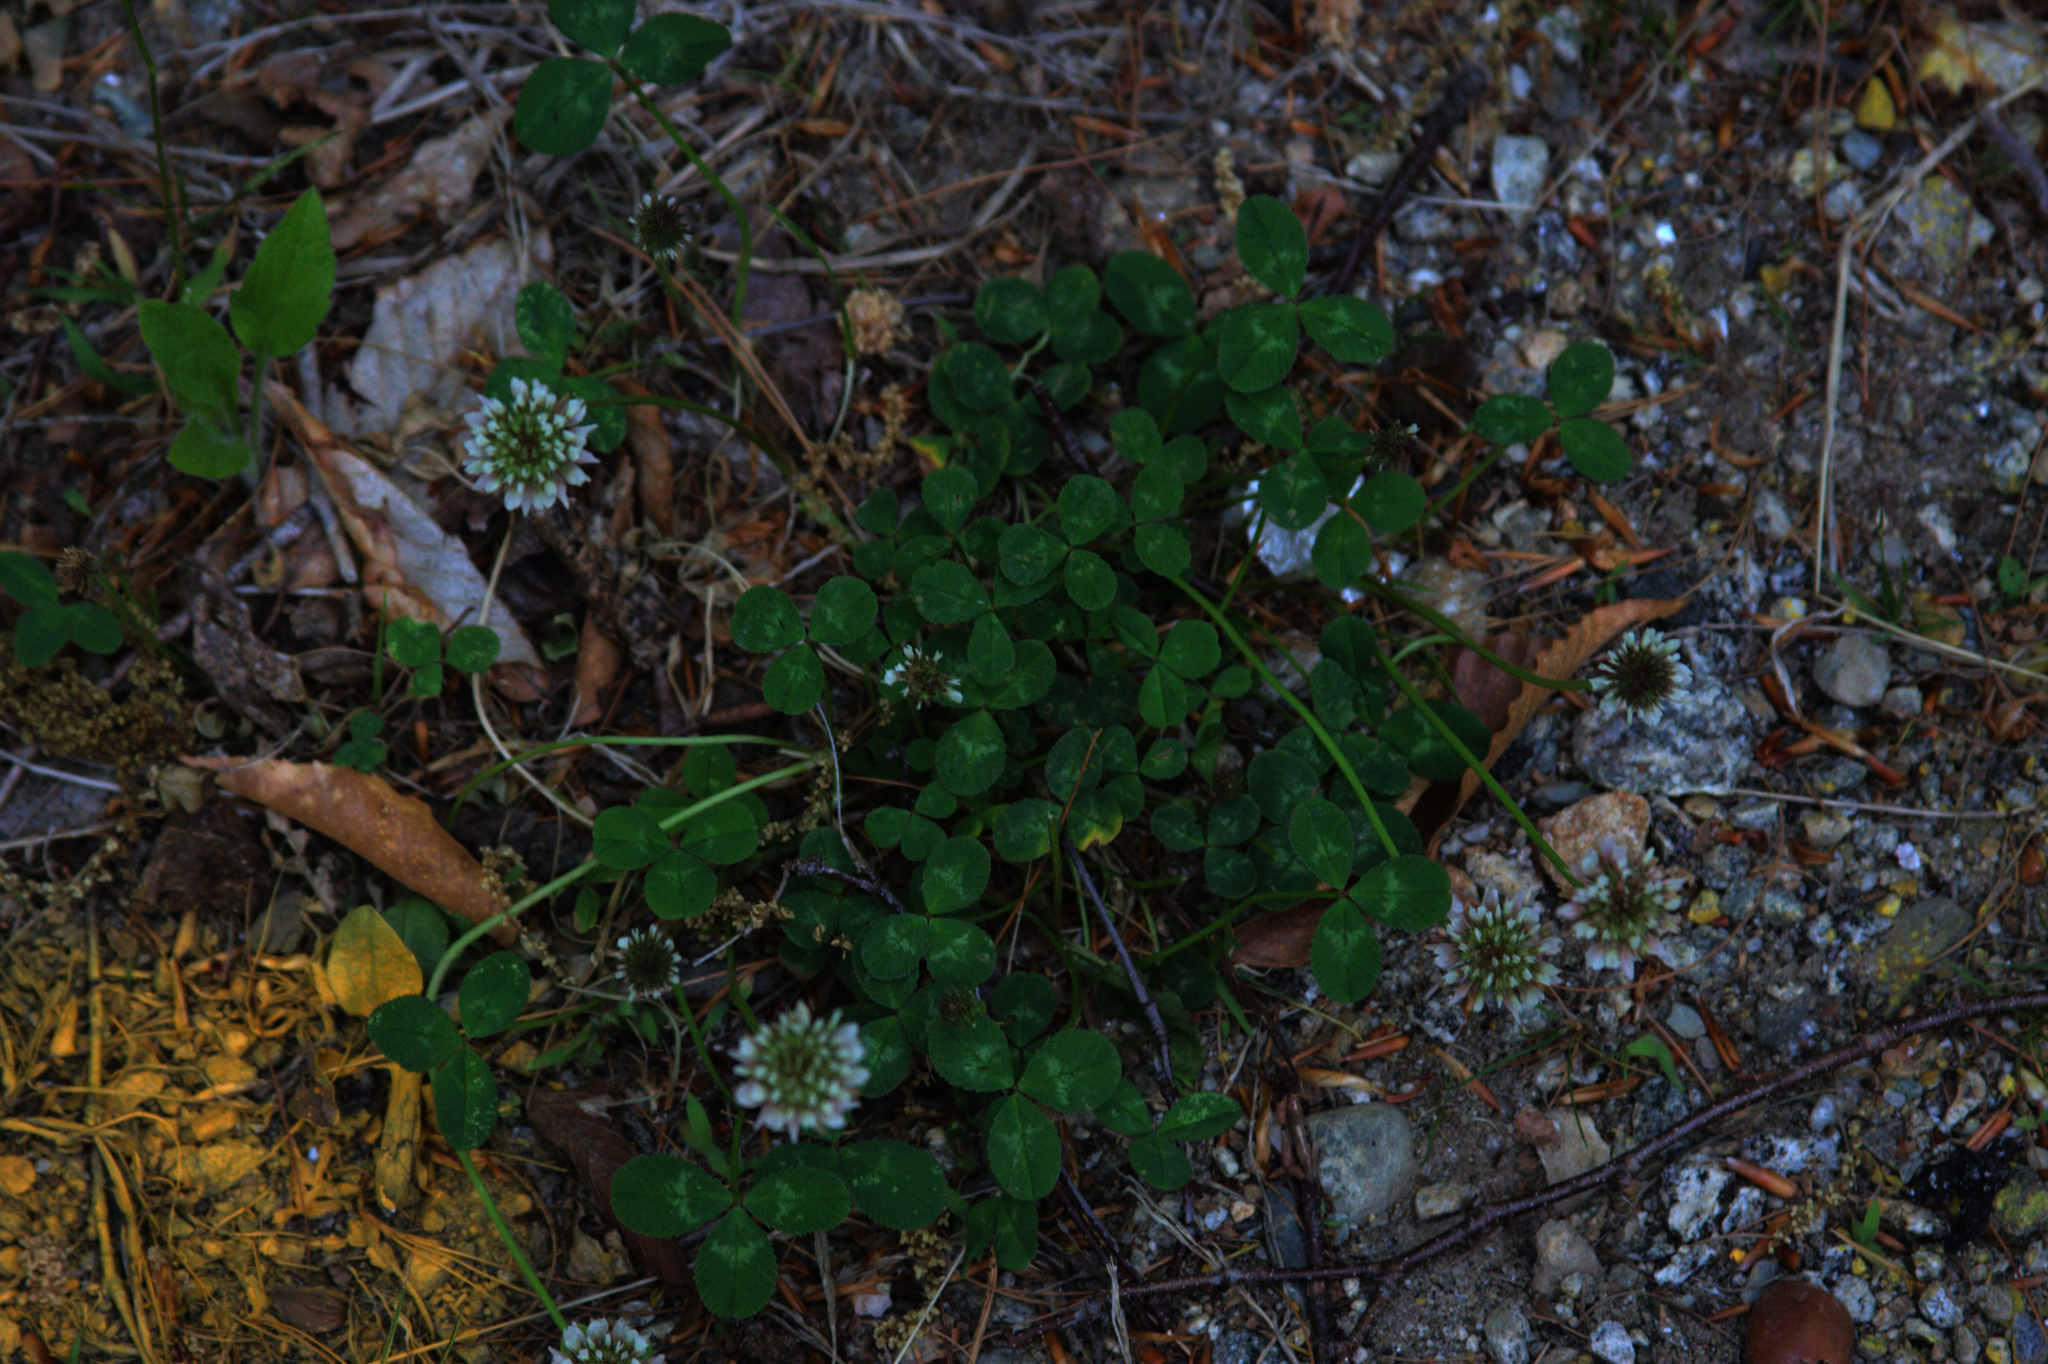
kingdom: Plantae
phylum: Tracheophyta
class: Magnoliopsida
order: Fabales
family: Fabaceae
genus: Trifolium
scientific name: Trifolium repens
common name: White clover
